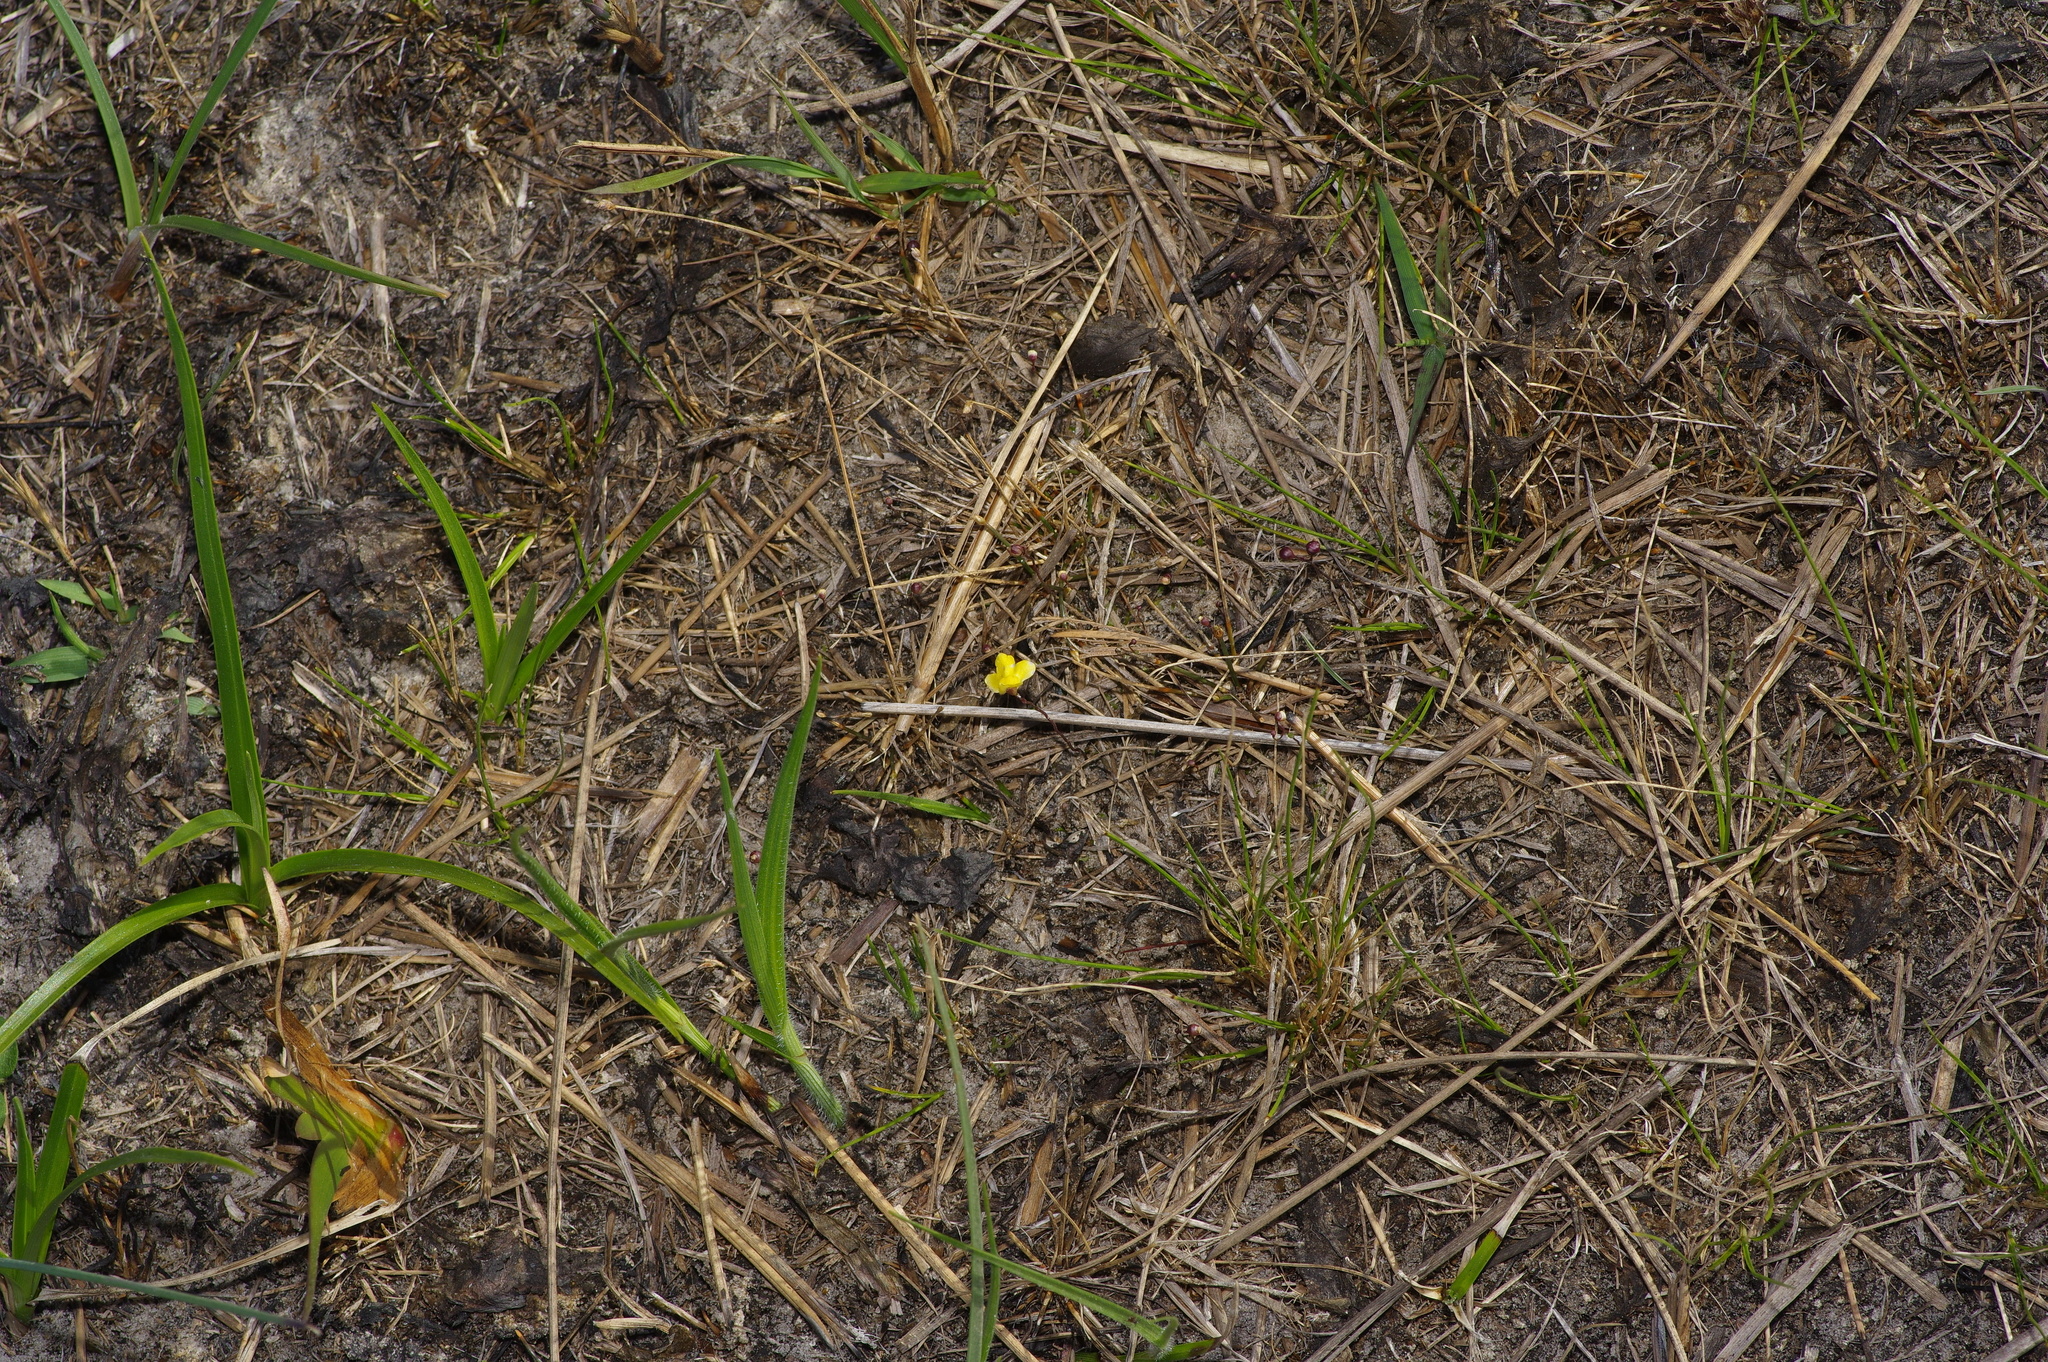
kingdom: Plantae
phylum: Tracheophyta
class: Magnoliopsida
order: Lamiales
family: Lentibulariaceae
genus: Utricularia
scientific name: Utricularia subulata
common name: Tiny bladderwort
